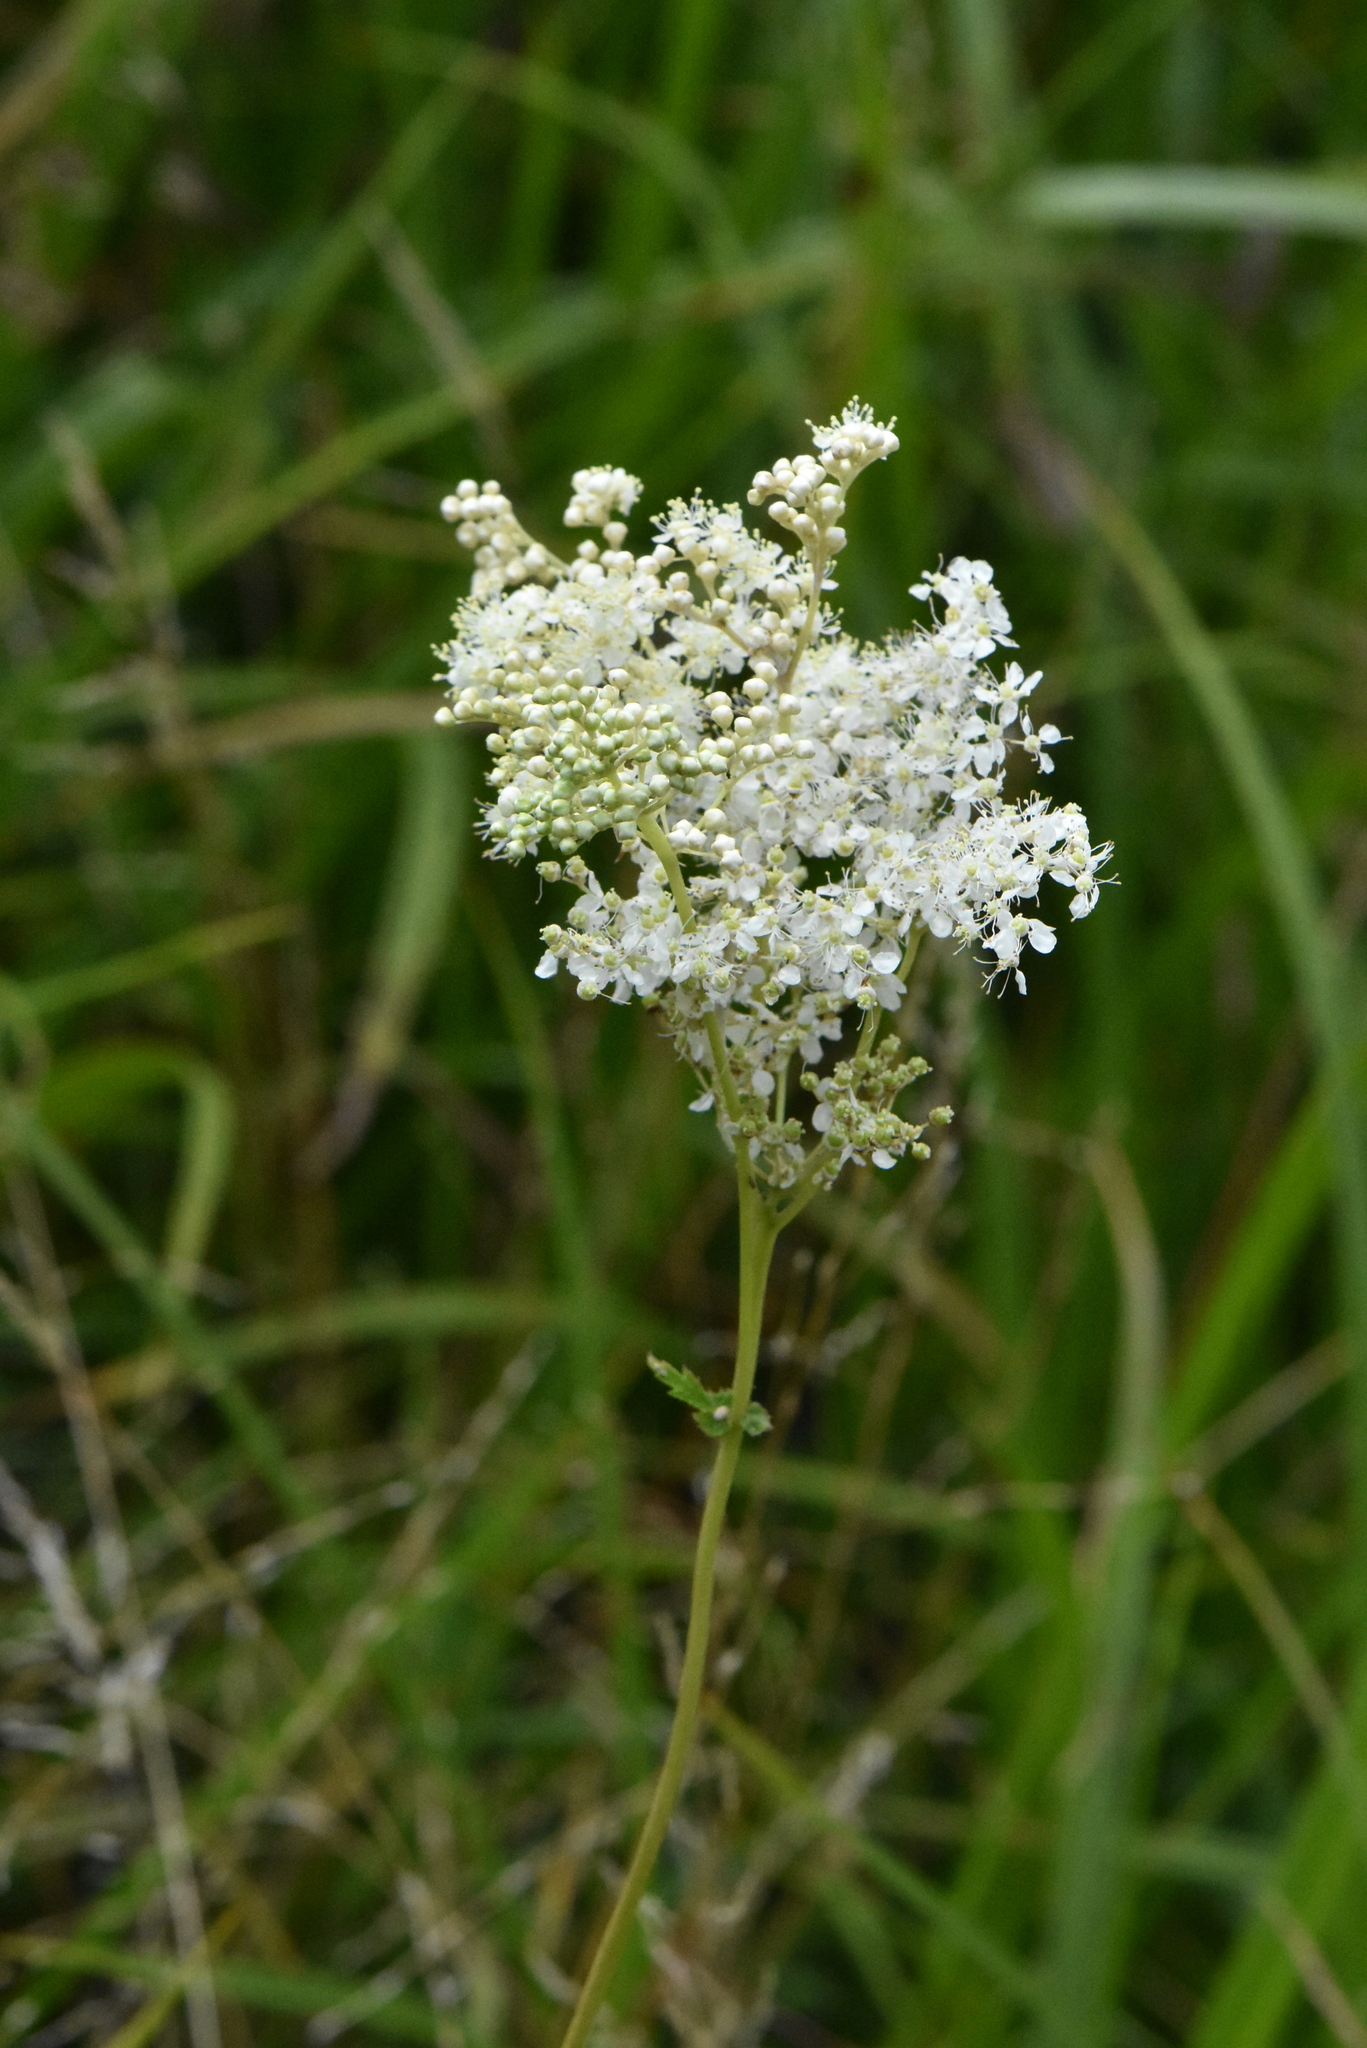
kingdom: Plantae
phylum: Tracheophyta
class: Magnoliopsida
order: Rosales
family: Rosaceae
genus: Filipendula
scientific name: Filipendula ulmaria
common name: Meadowsweet
